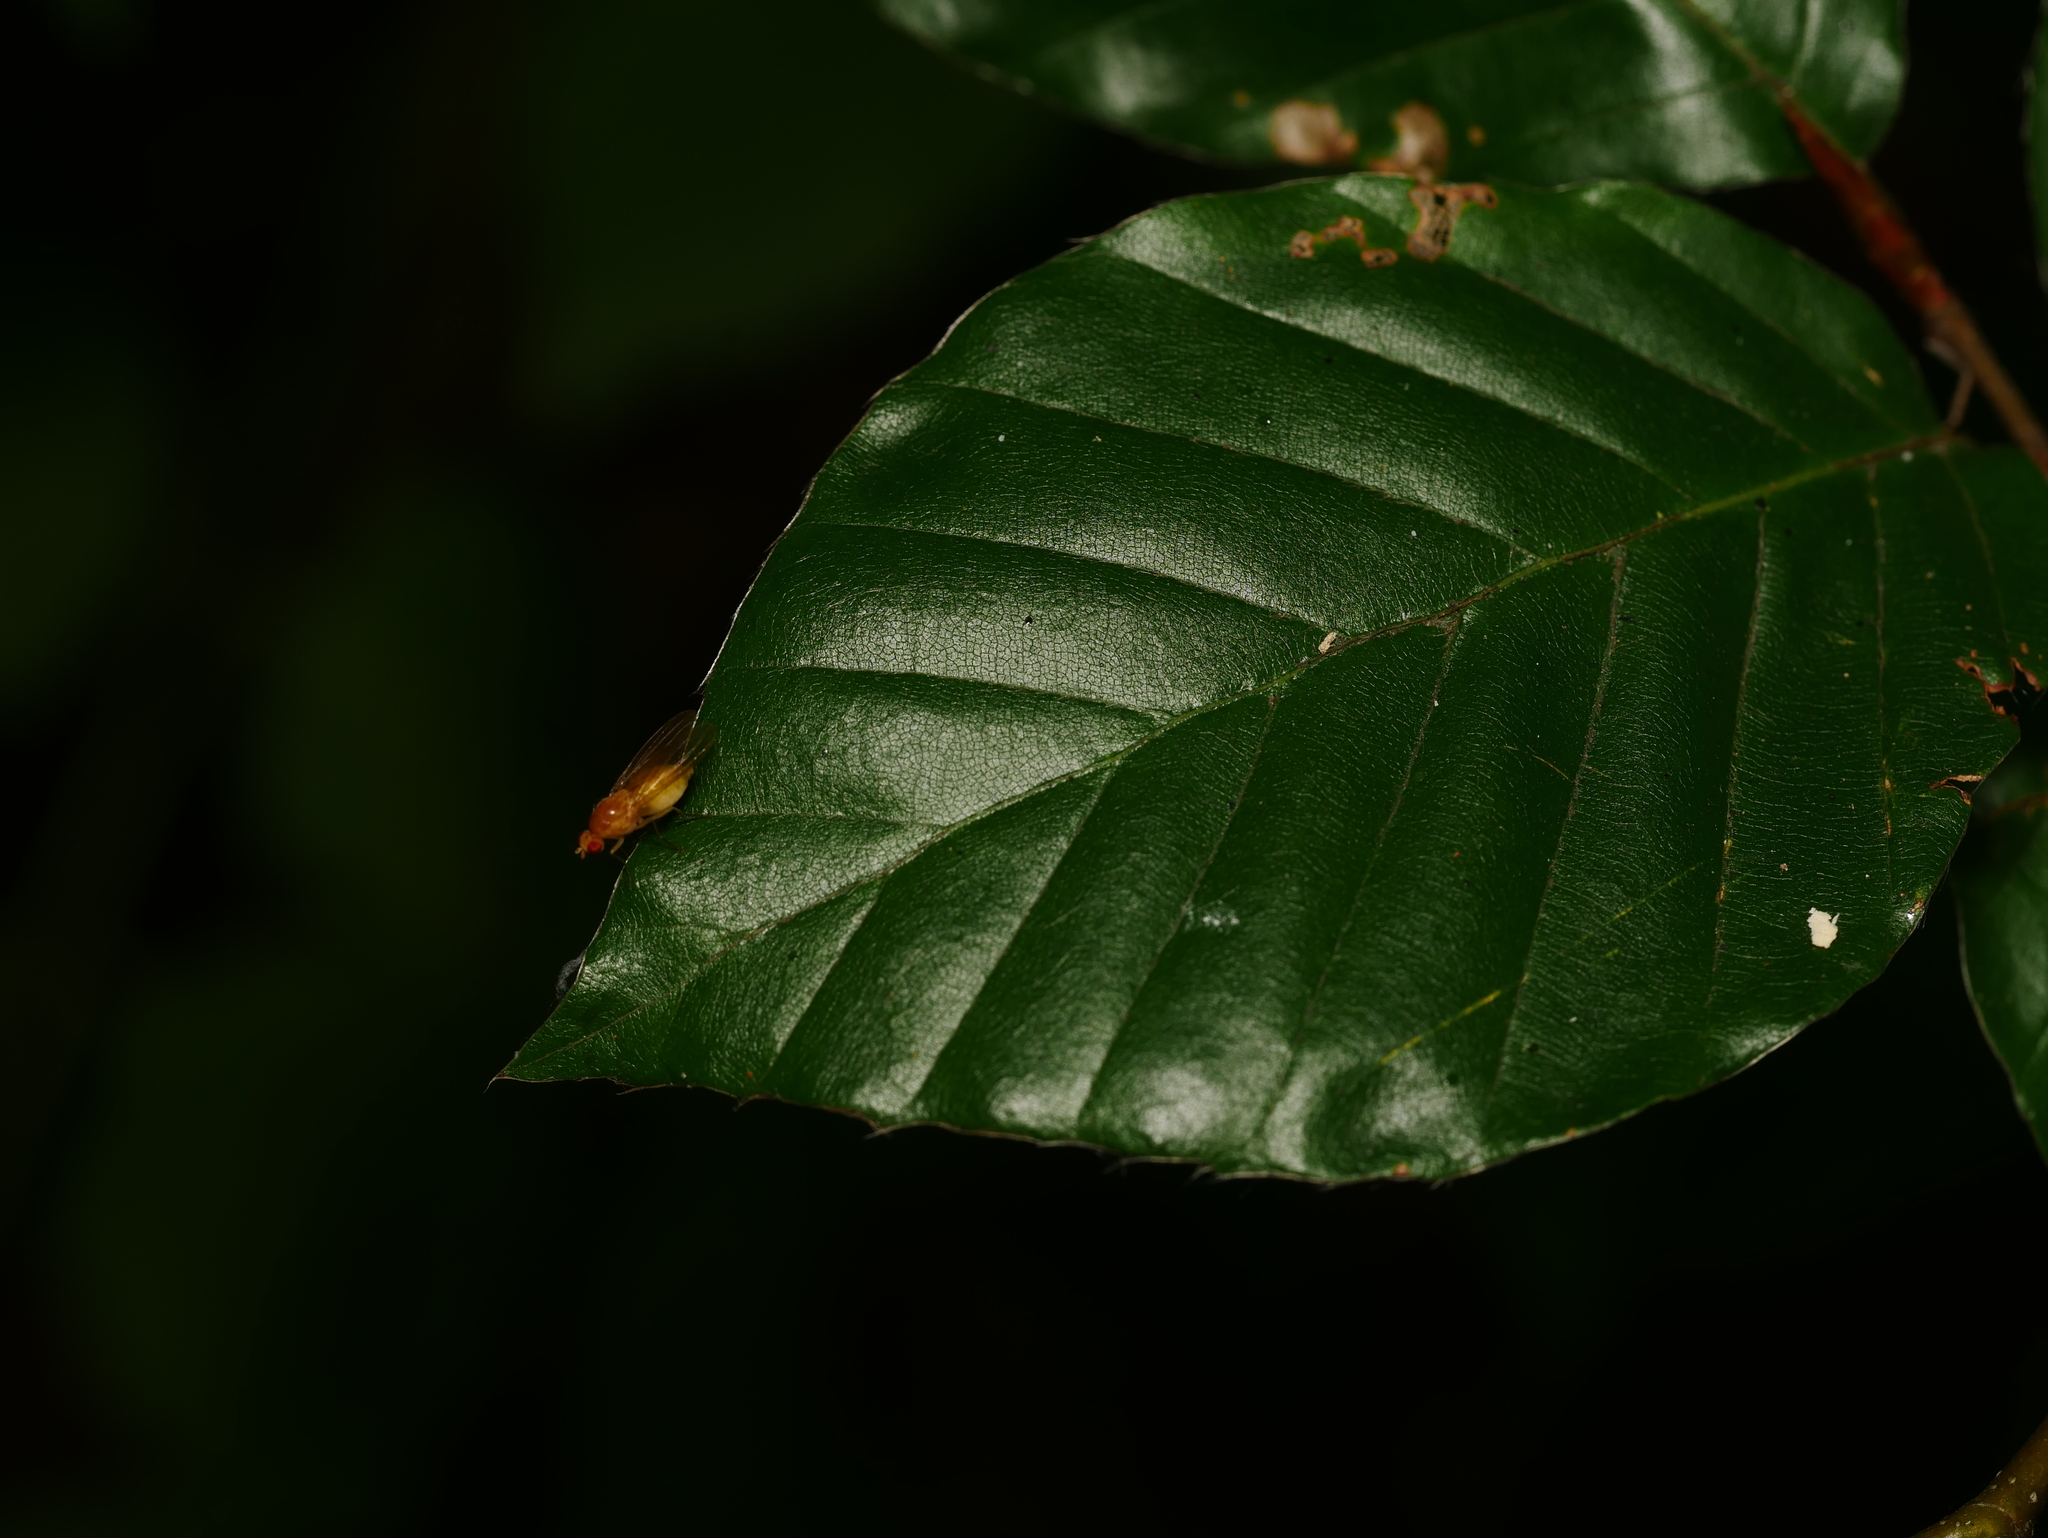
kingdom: Plantae
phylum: Tracheophyta
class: Magnoliopsida
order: Fagales
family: Fagaceae
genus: Fagus
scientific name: Fagus sylvatica
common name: Beech
